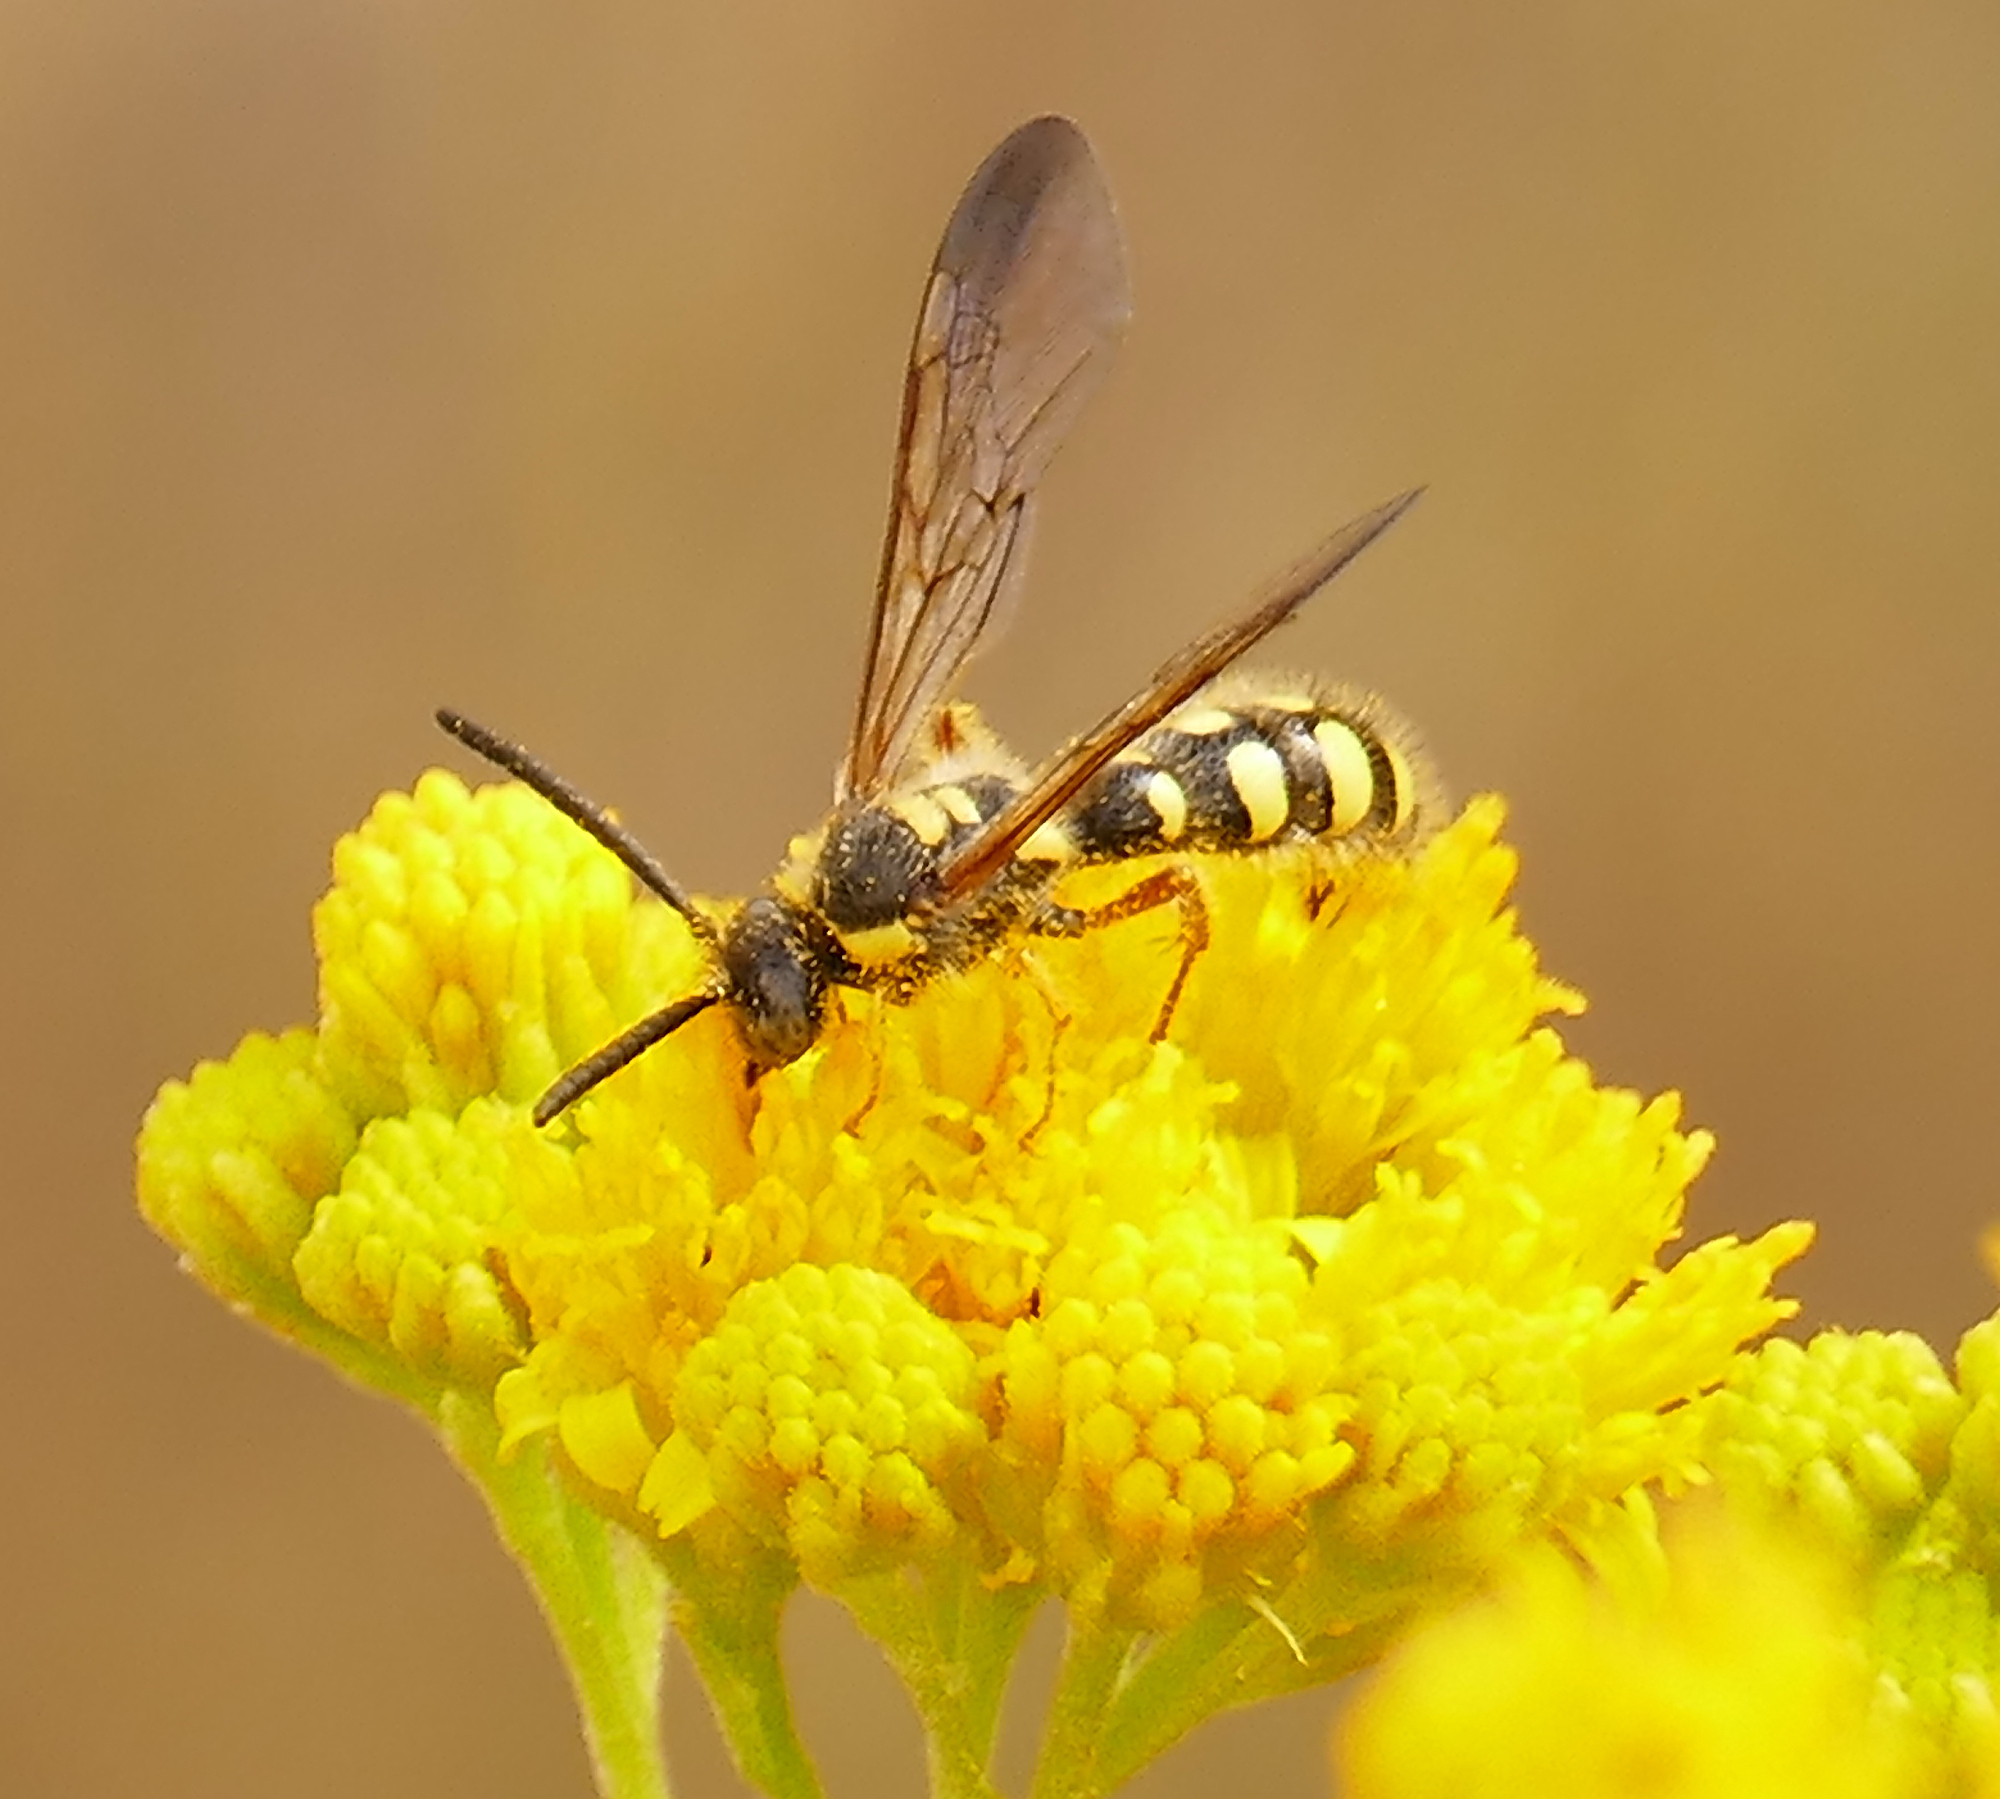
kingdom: Animalia
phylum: Arthropoda
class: Insecta
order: Hymenoptera
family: Scoliidae
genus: Colpa
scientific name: Colpa octomaculata
